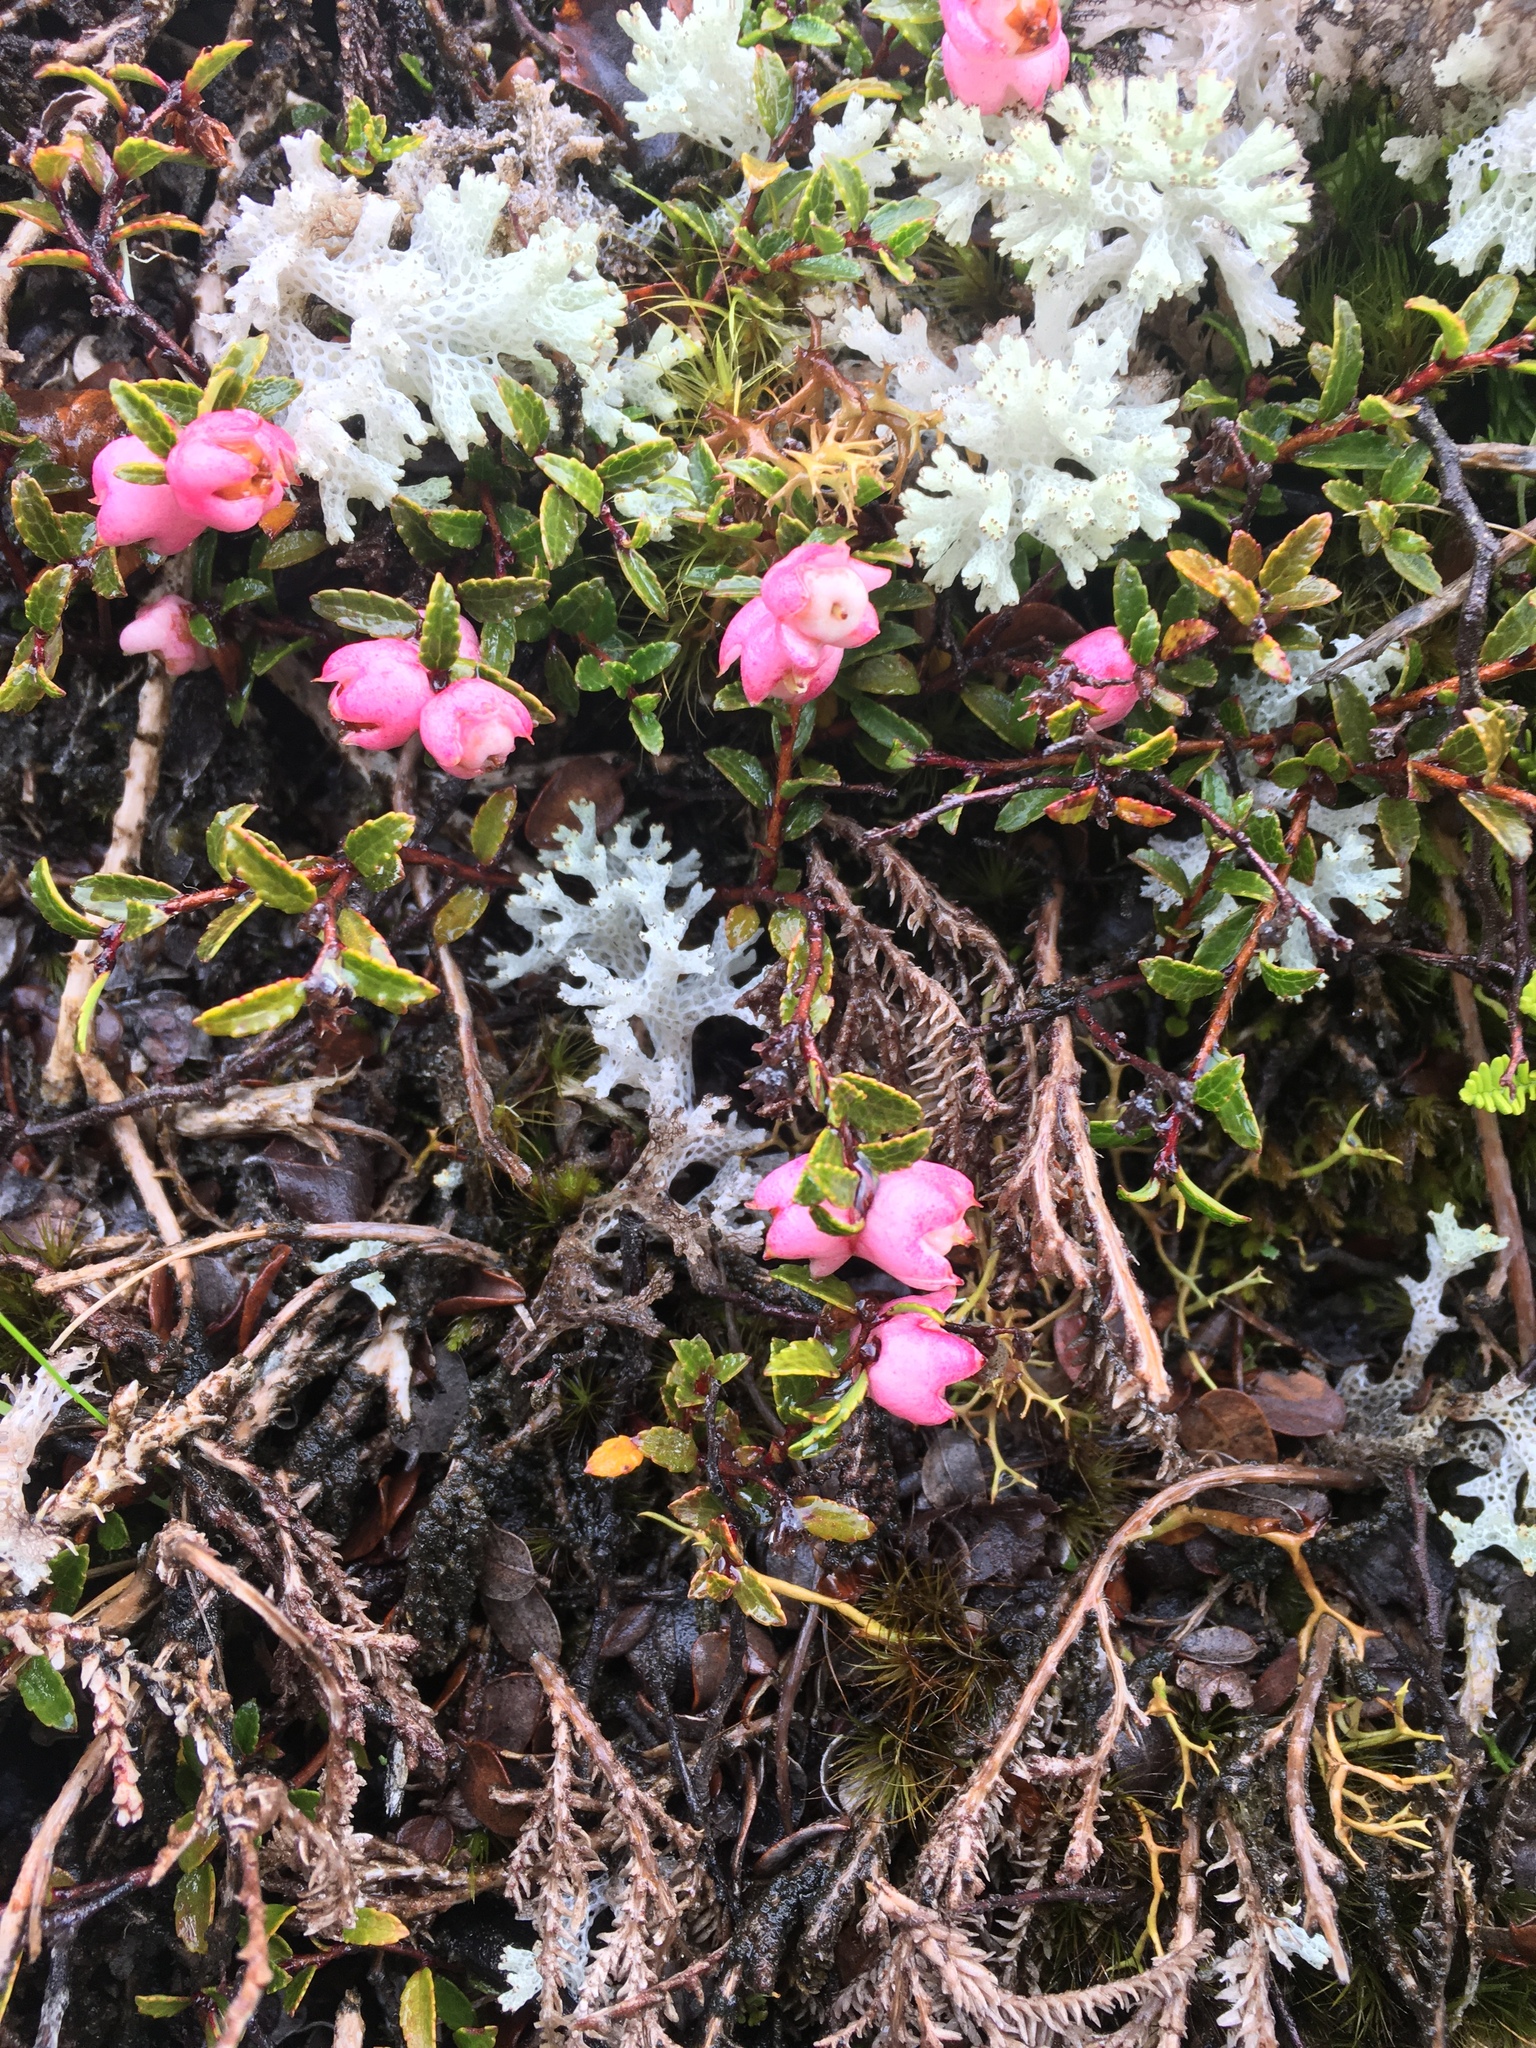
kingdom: Plantae
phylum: Tracheophyta
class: Magnoliopsida
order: Ericales
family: Ericaceae
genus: Gaultheria
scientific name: Gaultheria
